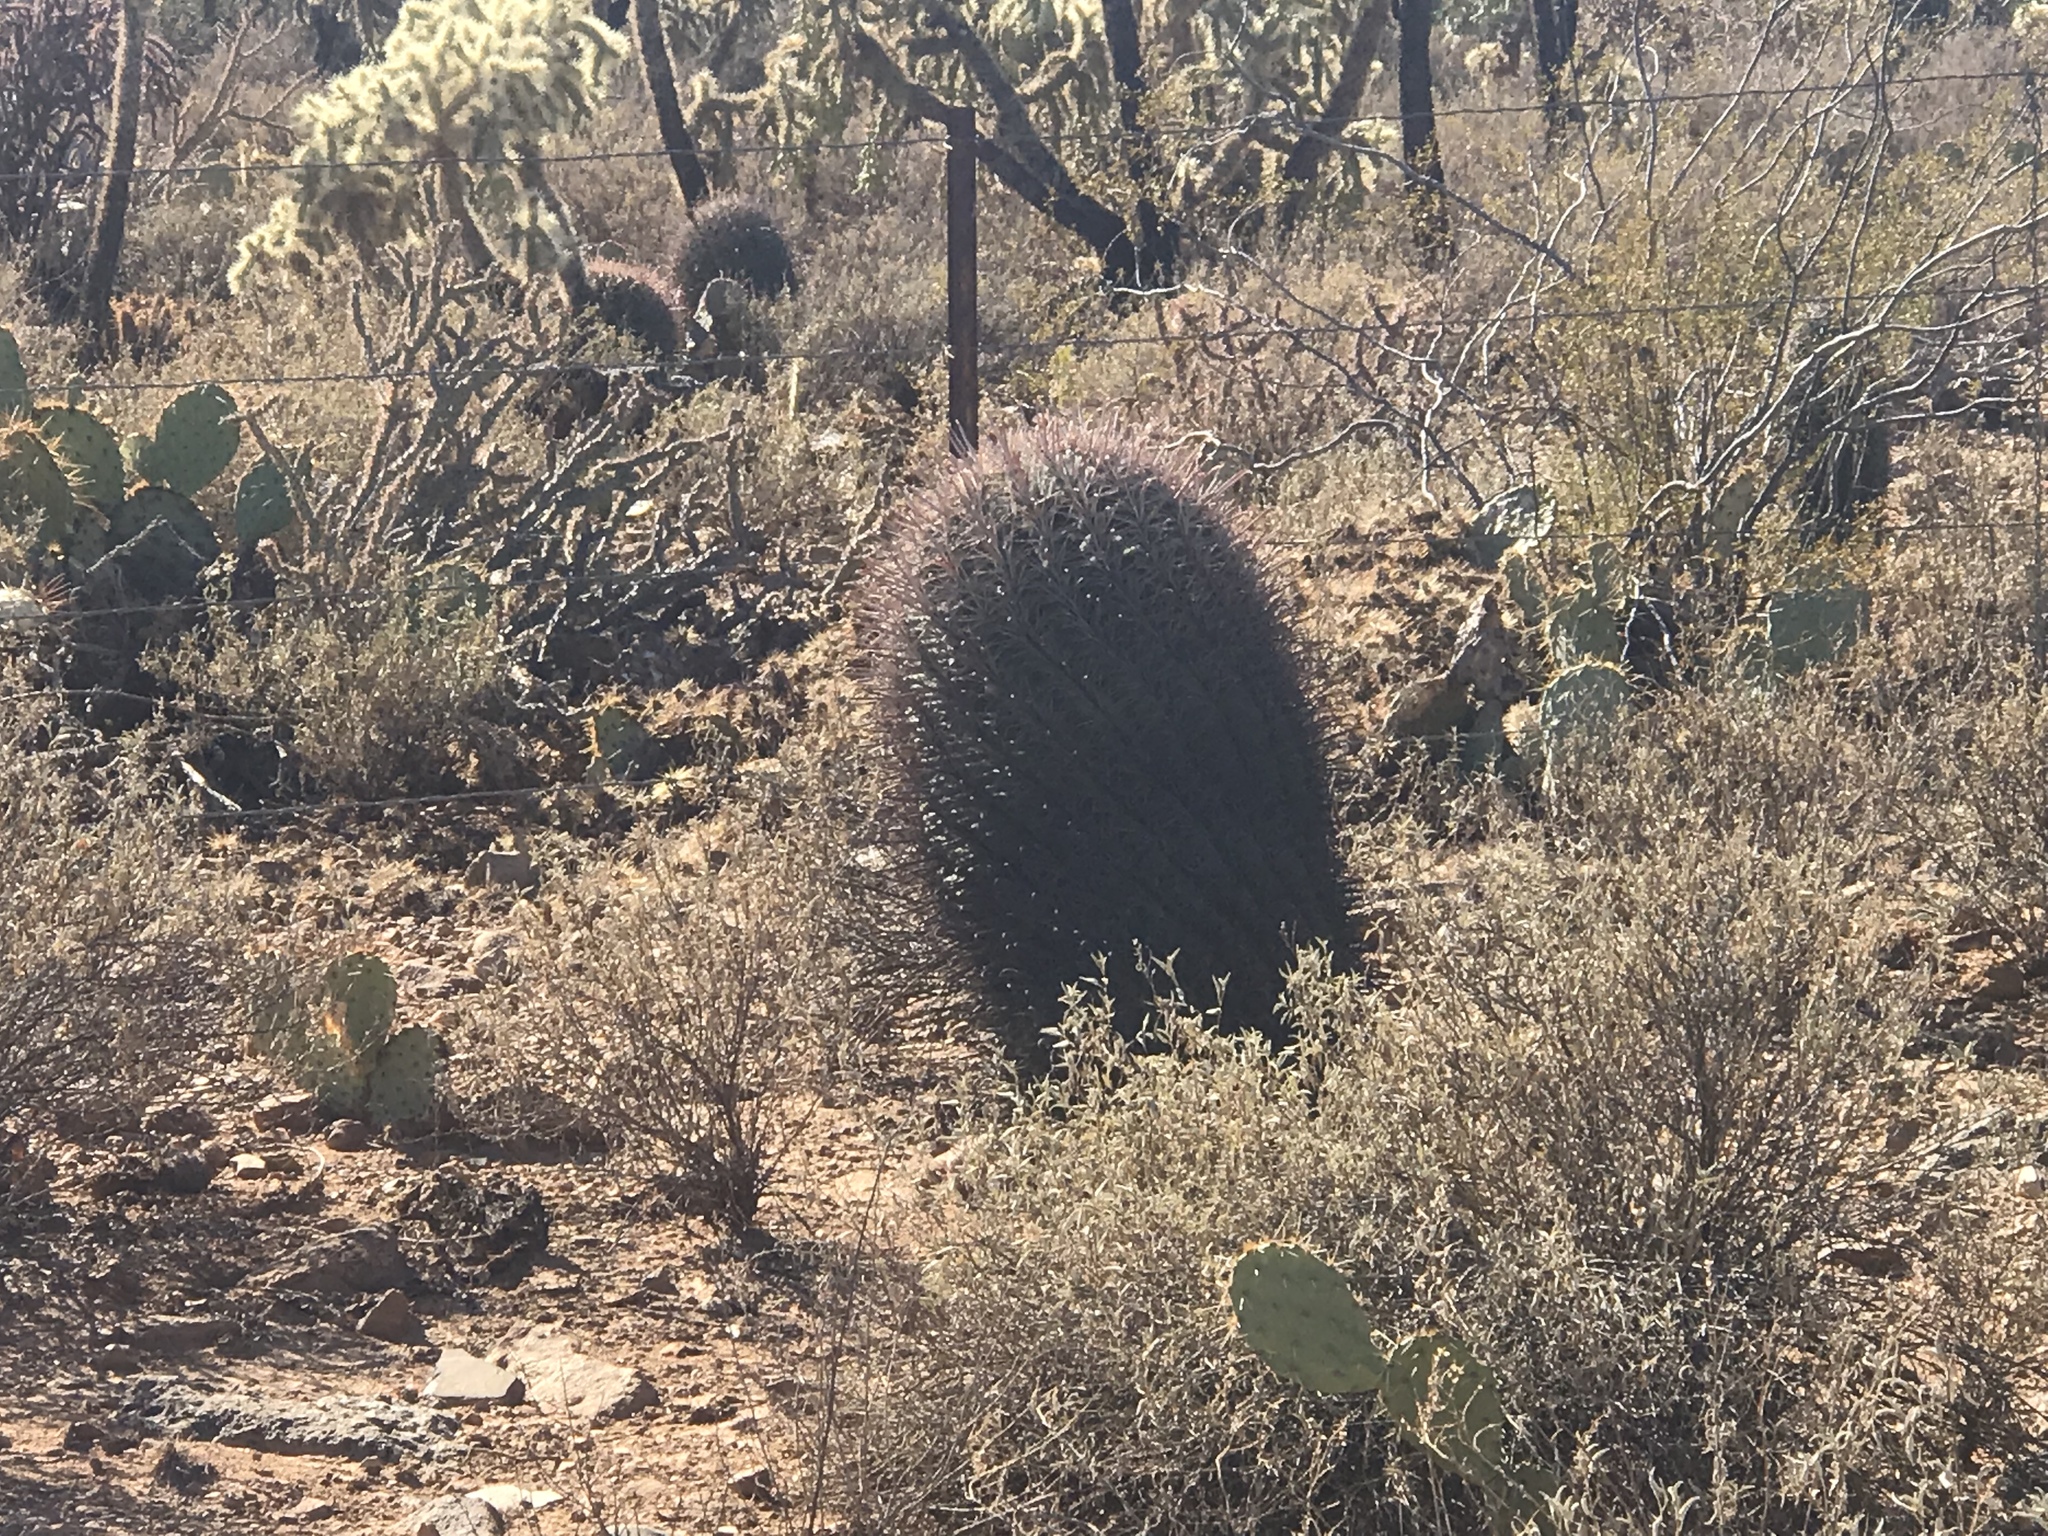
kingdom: Plantae
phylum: Tracheophyta
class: Magnoliopsida
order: Caryophyllales
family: Cactaceae
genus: Ferocactus
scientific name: Ferocactus wislizeni
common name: Candy barrel cactus
